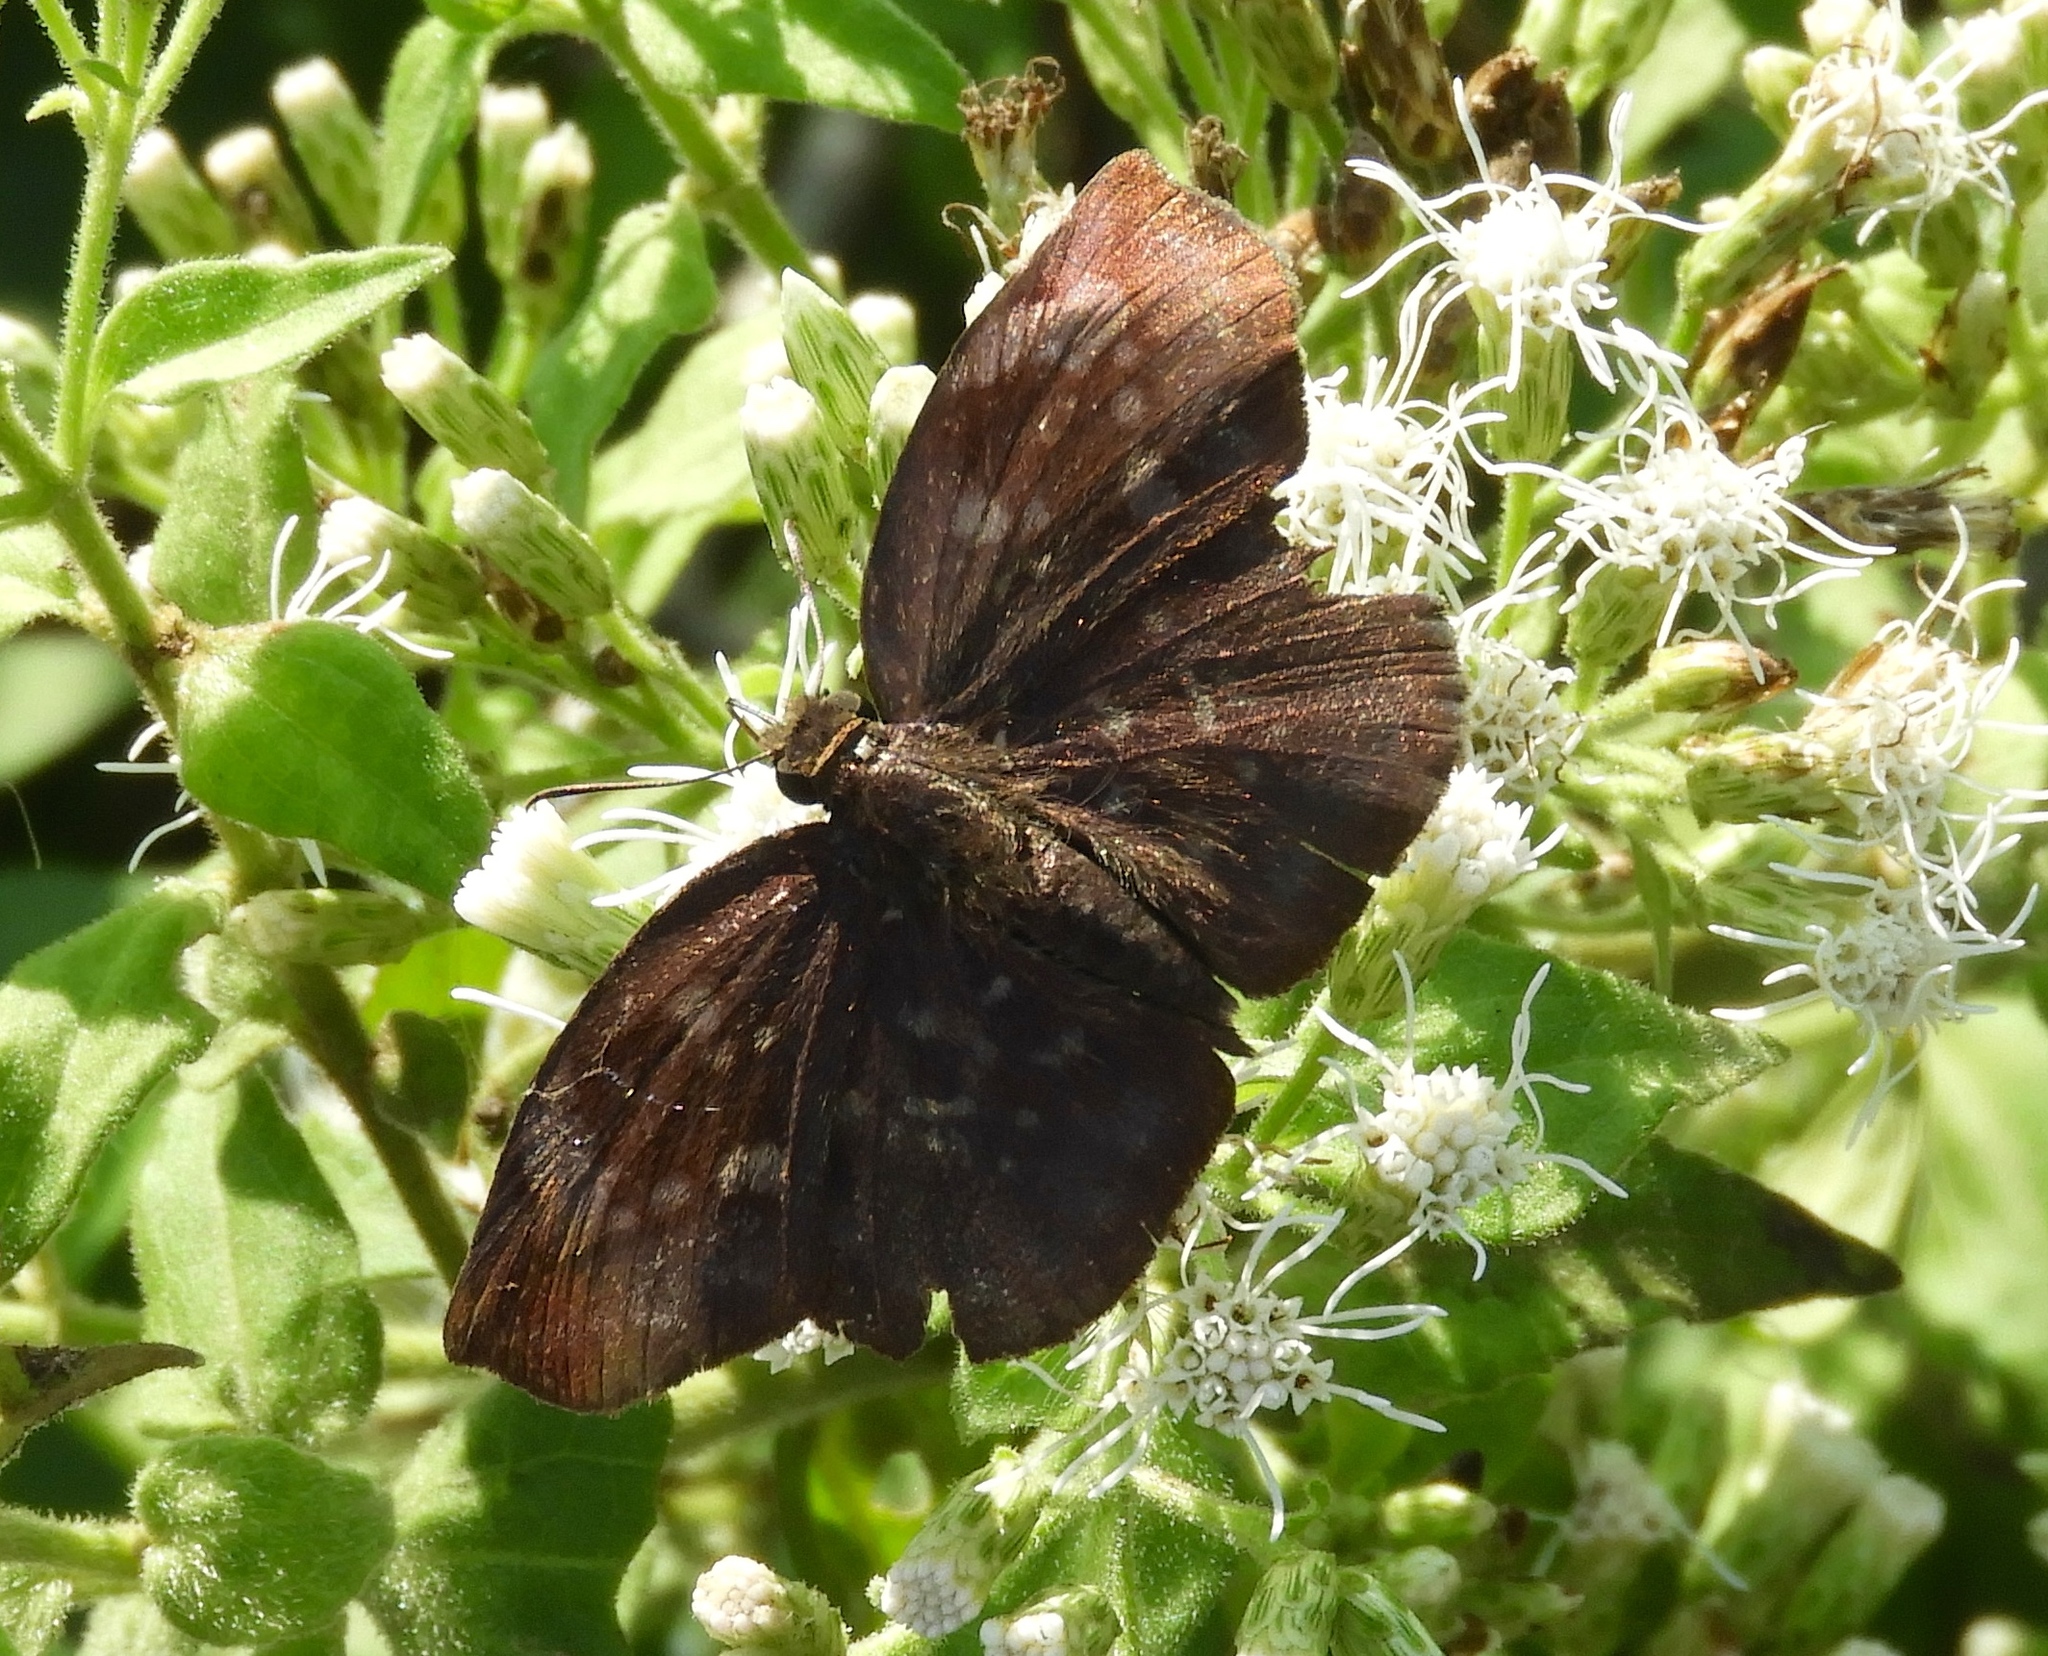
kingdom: Animalia
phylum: Arthropoda
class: Insecta
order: Lepidoptera
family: Hesperiidae
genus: Achlyodes
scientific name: Achlyodes thraso
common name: Sickle-winged skipper
